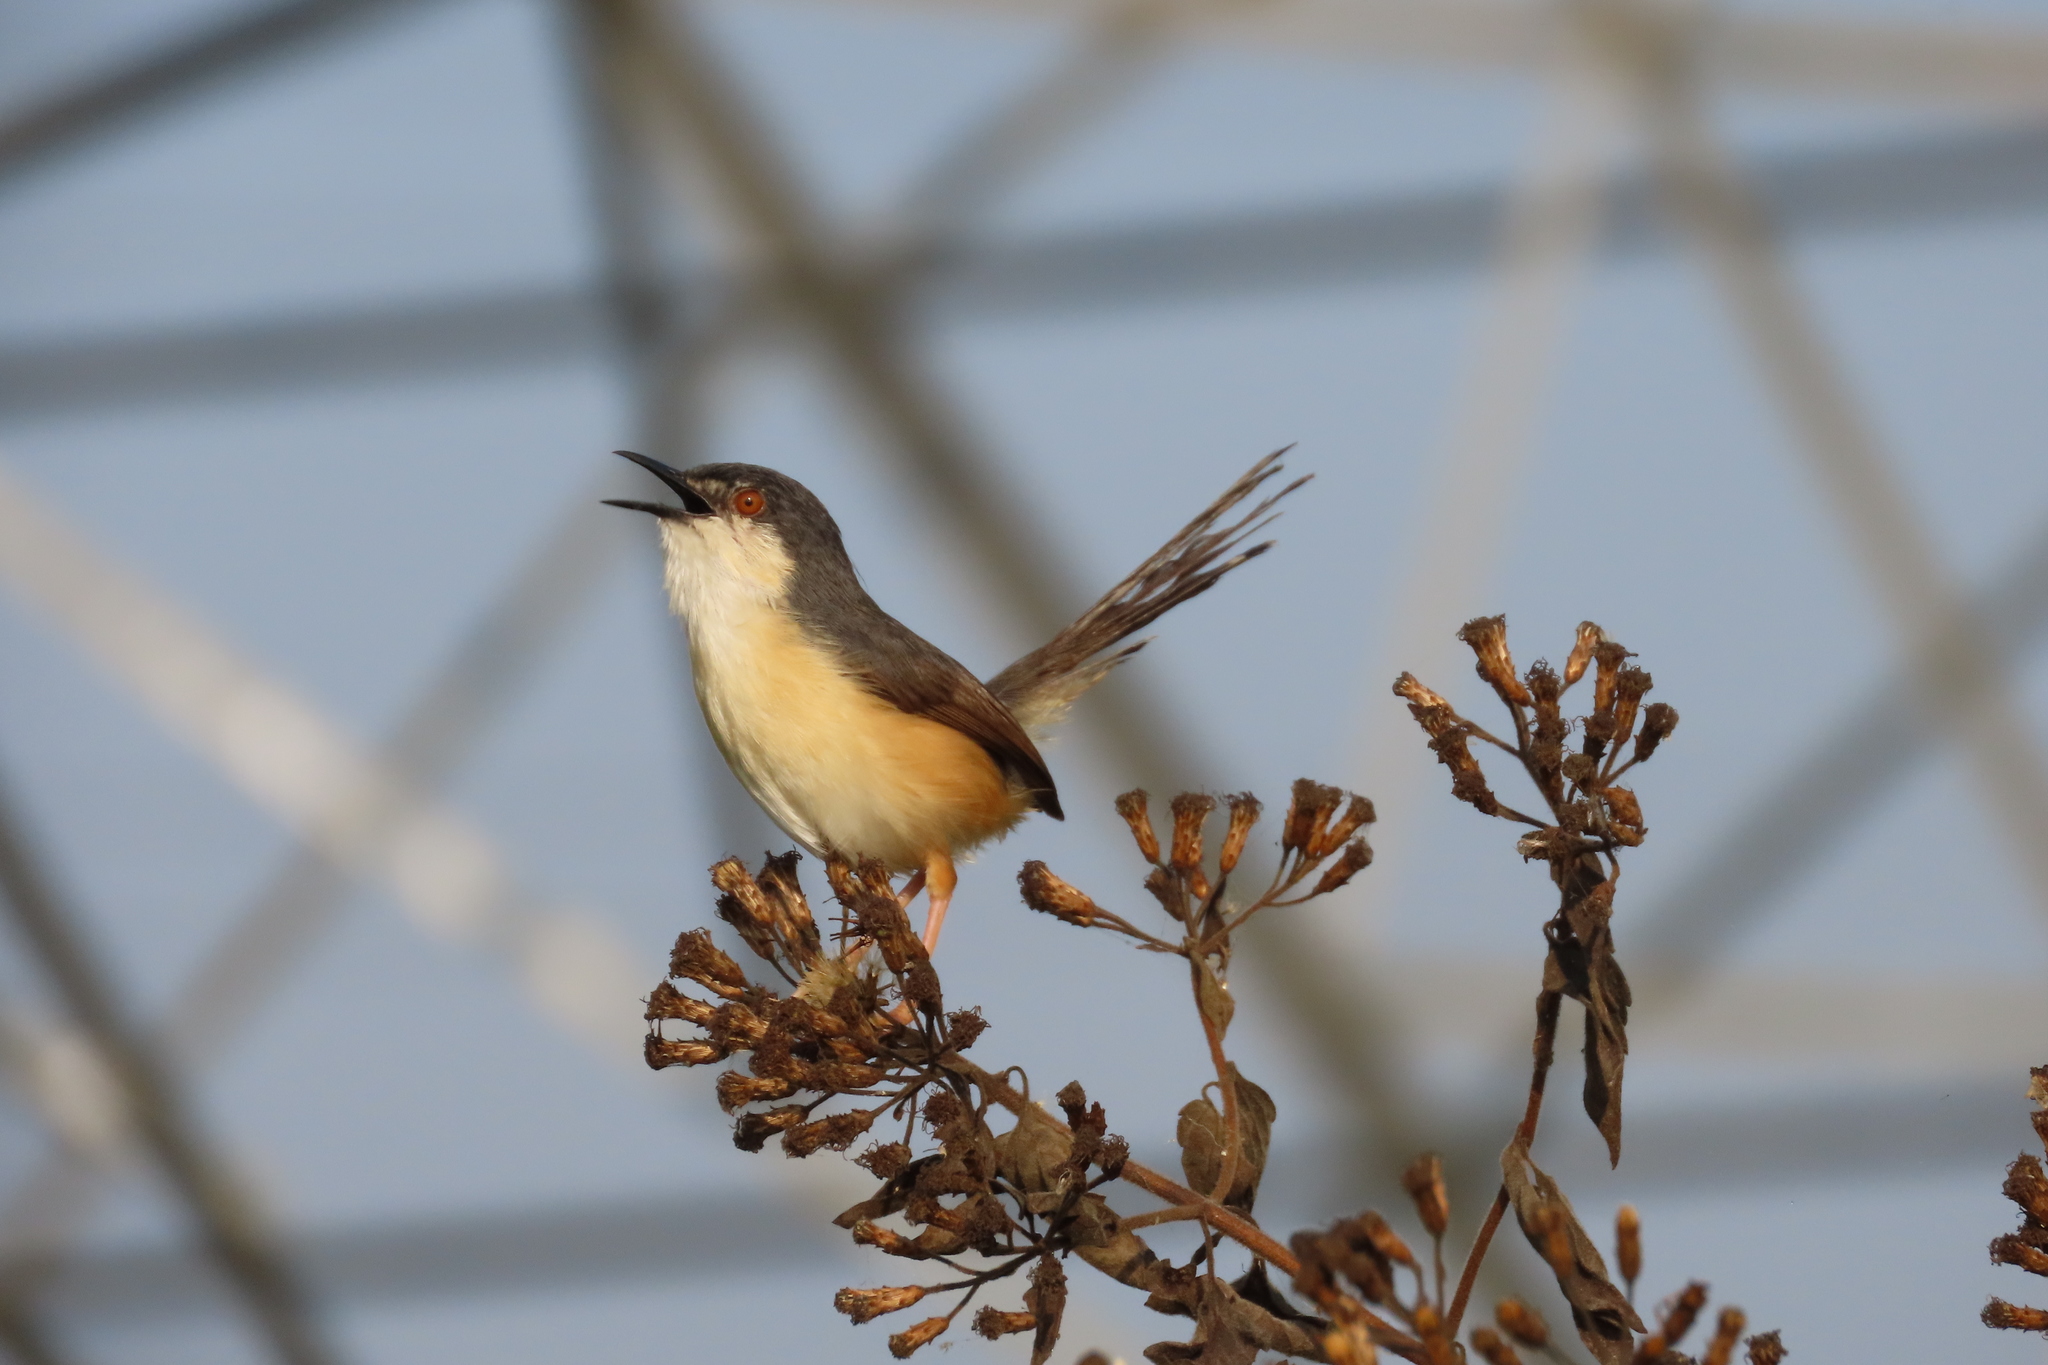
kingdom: Animalia
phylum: Chordata
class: Aves
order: Passeriformes
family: Cisticolidae
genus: Prinia
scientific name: Prinia socialis
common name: Ashy prinia
